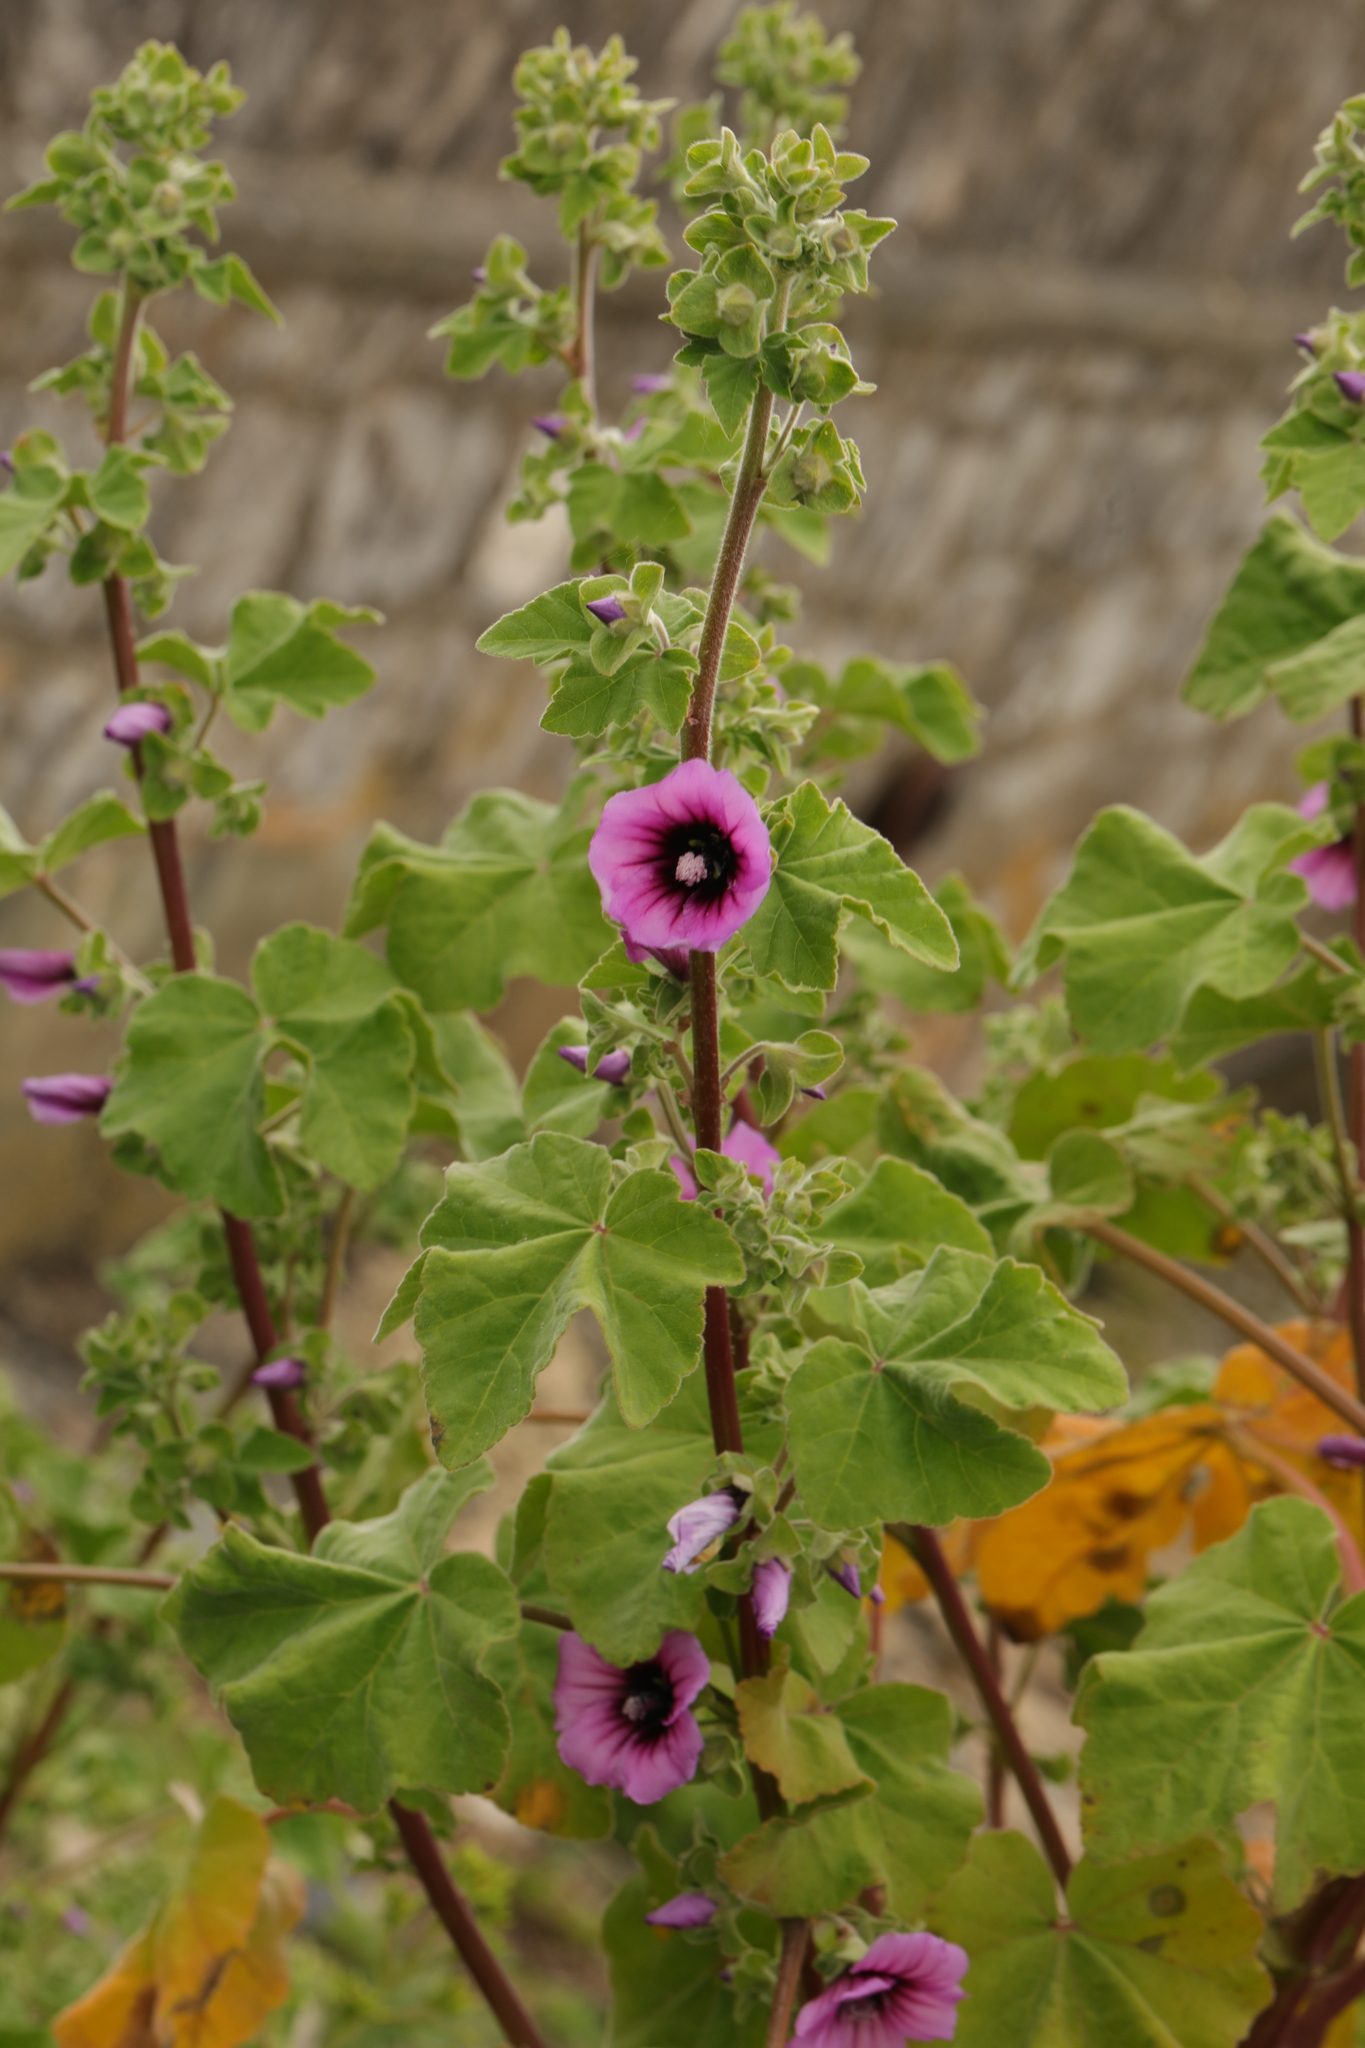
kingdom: Plantae
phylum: Tracheophyta
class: Magnoliopsida
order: Malvales
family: Malvaceae
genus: Malva
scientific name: Malva arborea
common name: Tree mallow
